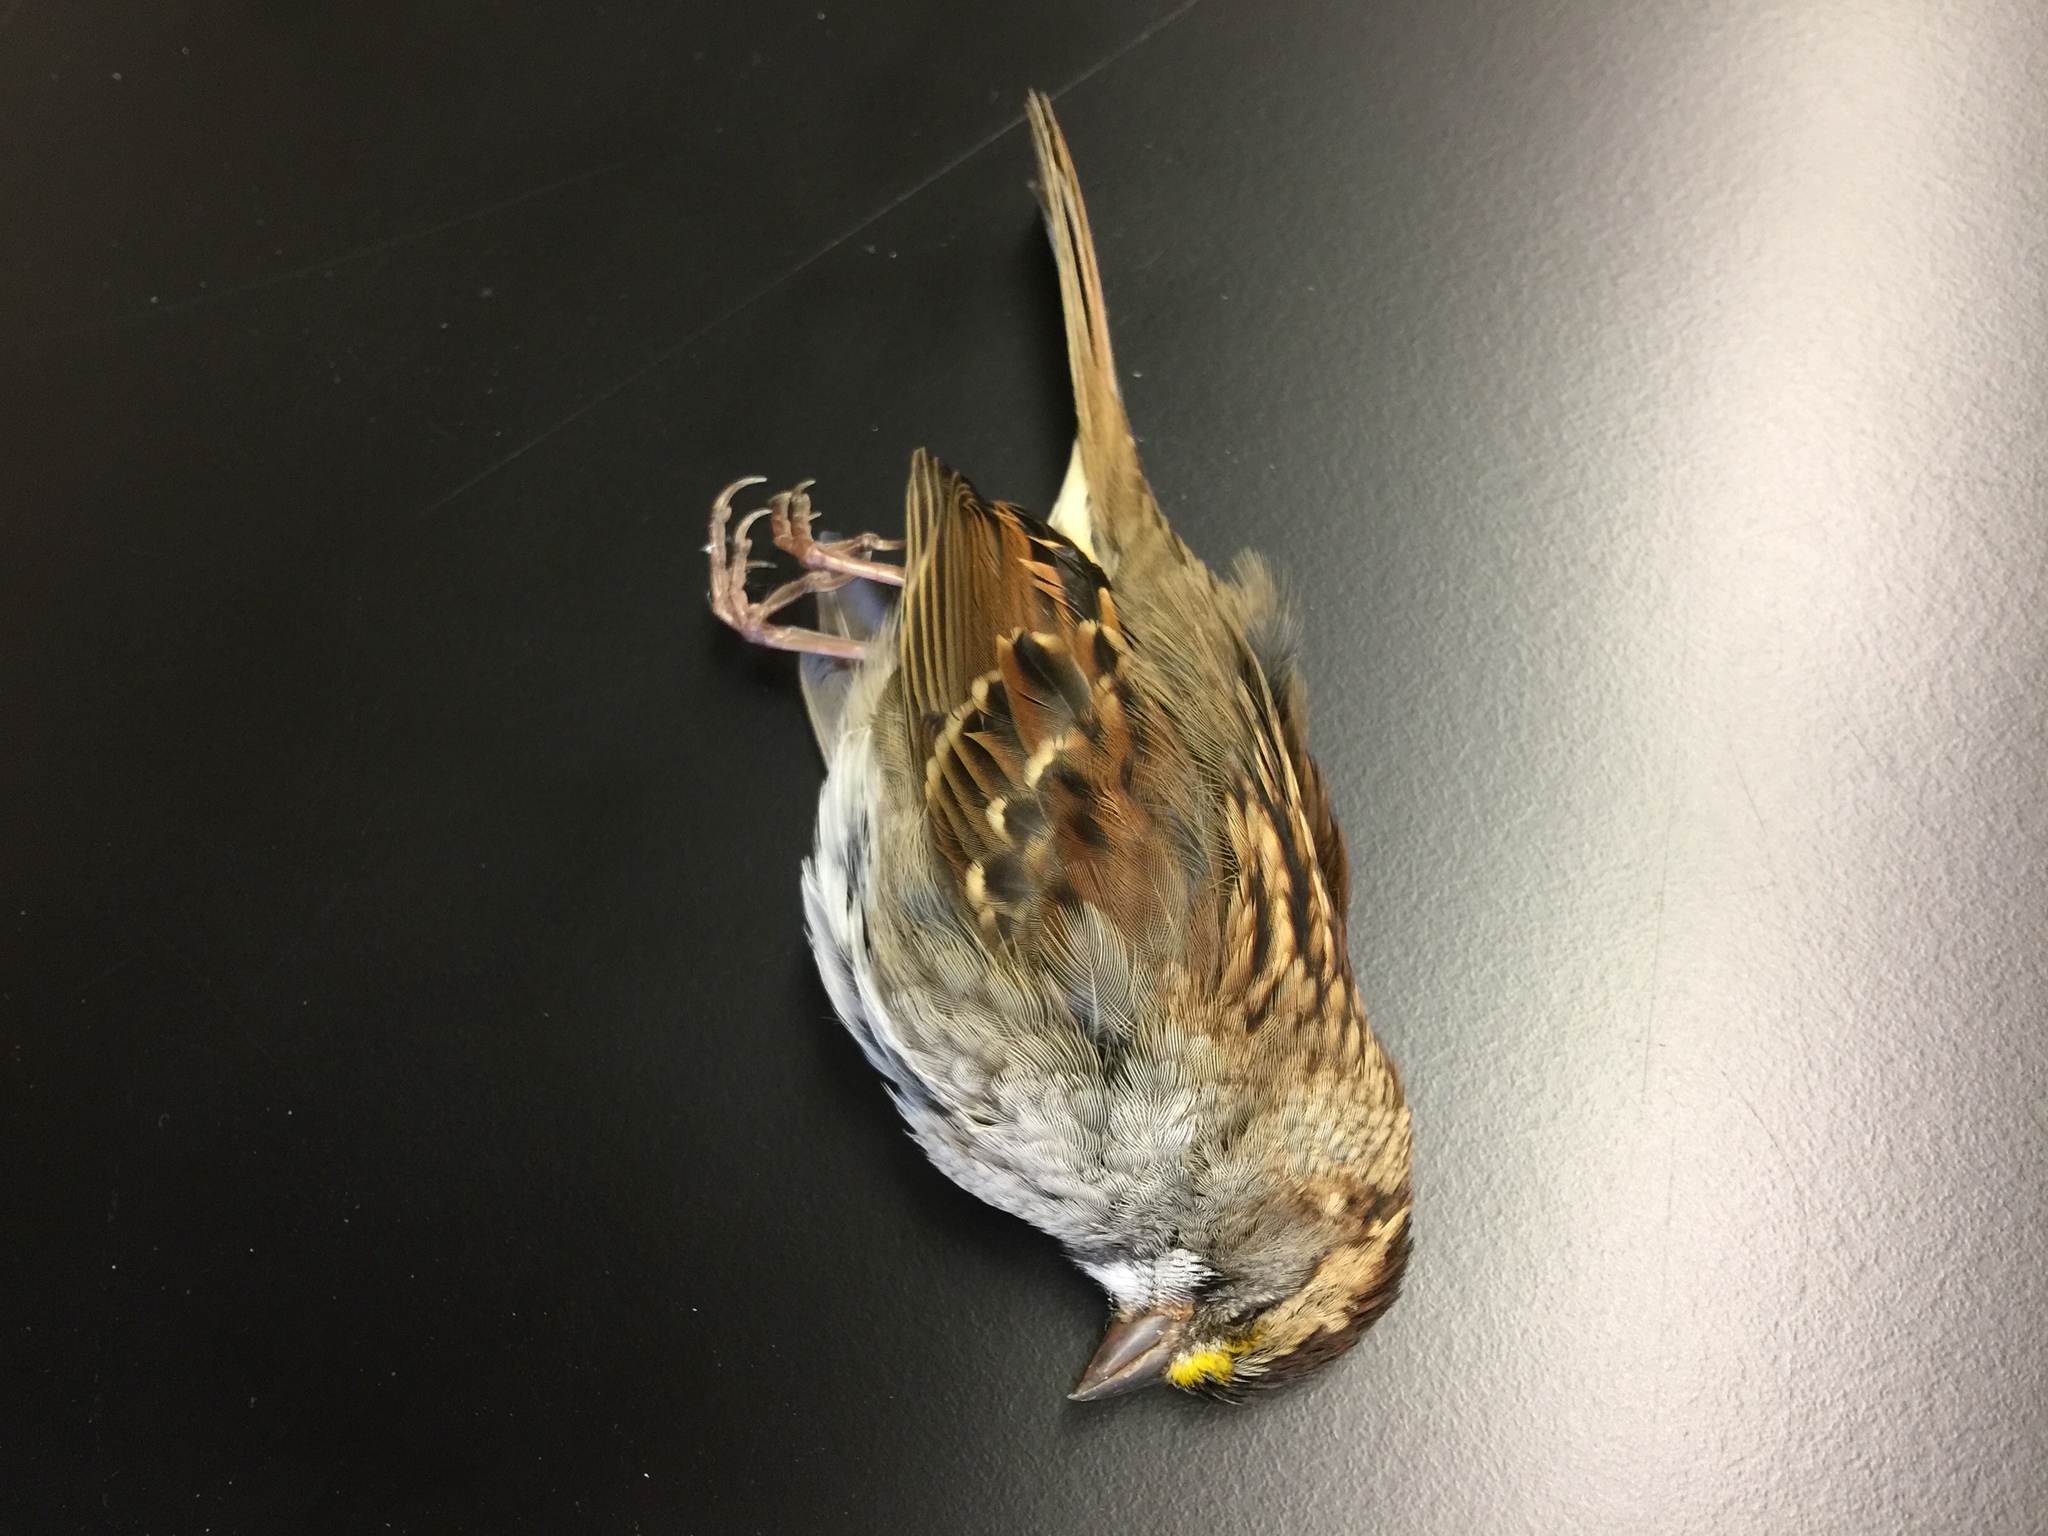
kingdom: Animalia
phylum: Chordata
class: Aves
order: Passeriformes
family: Passerellidae
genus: Zonotrichia
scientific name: Zonotrichia albicollis
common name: White-throated sparrow
